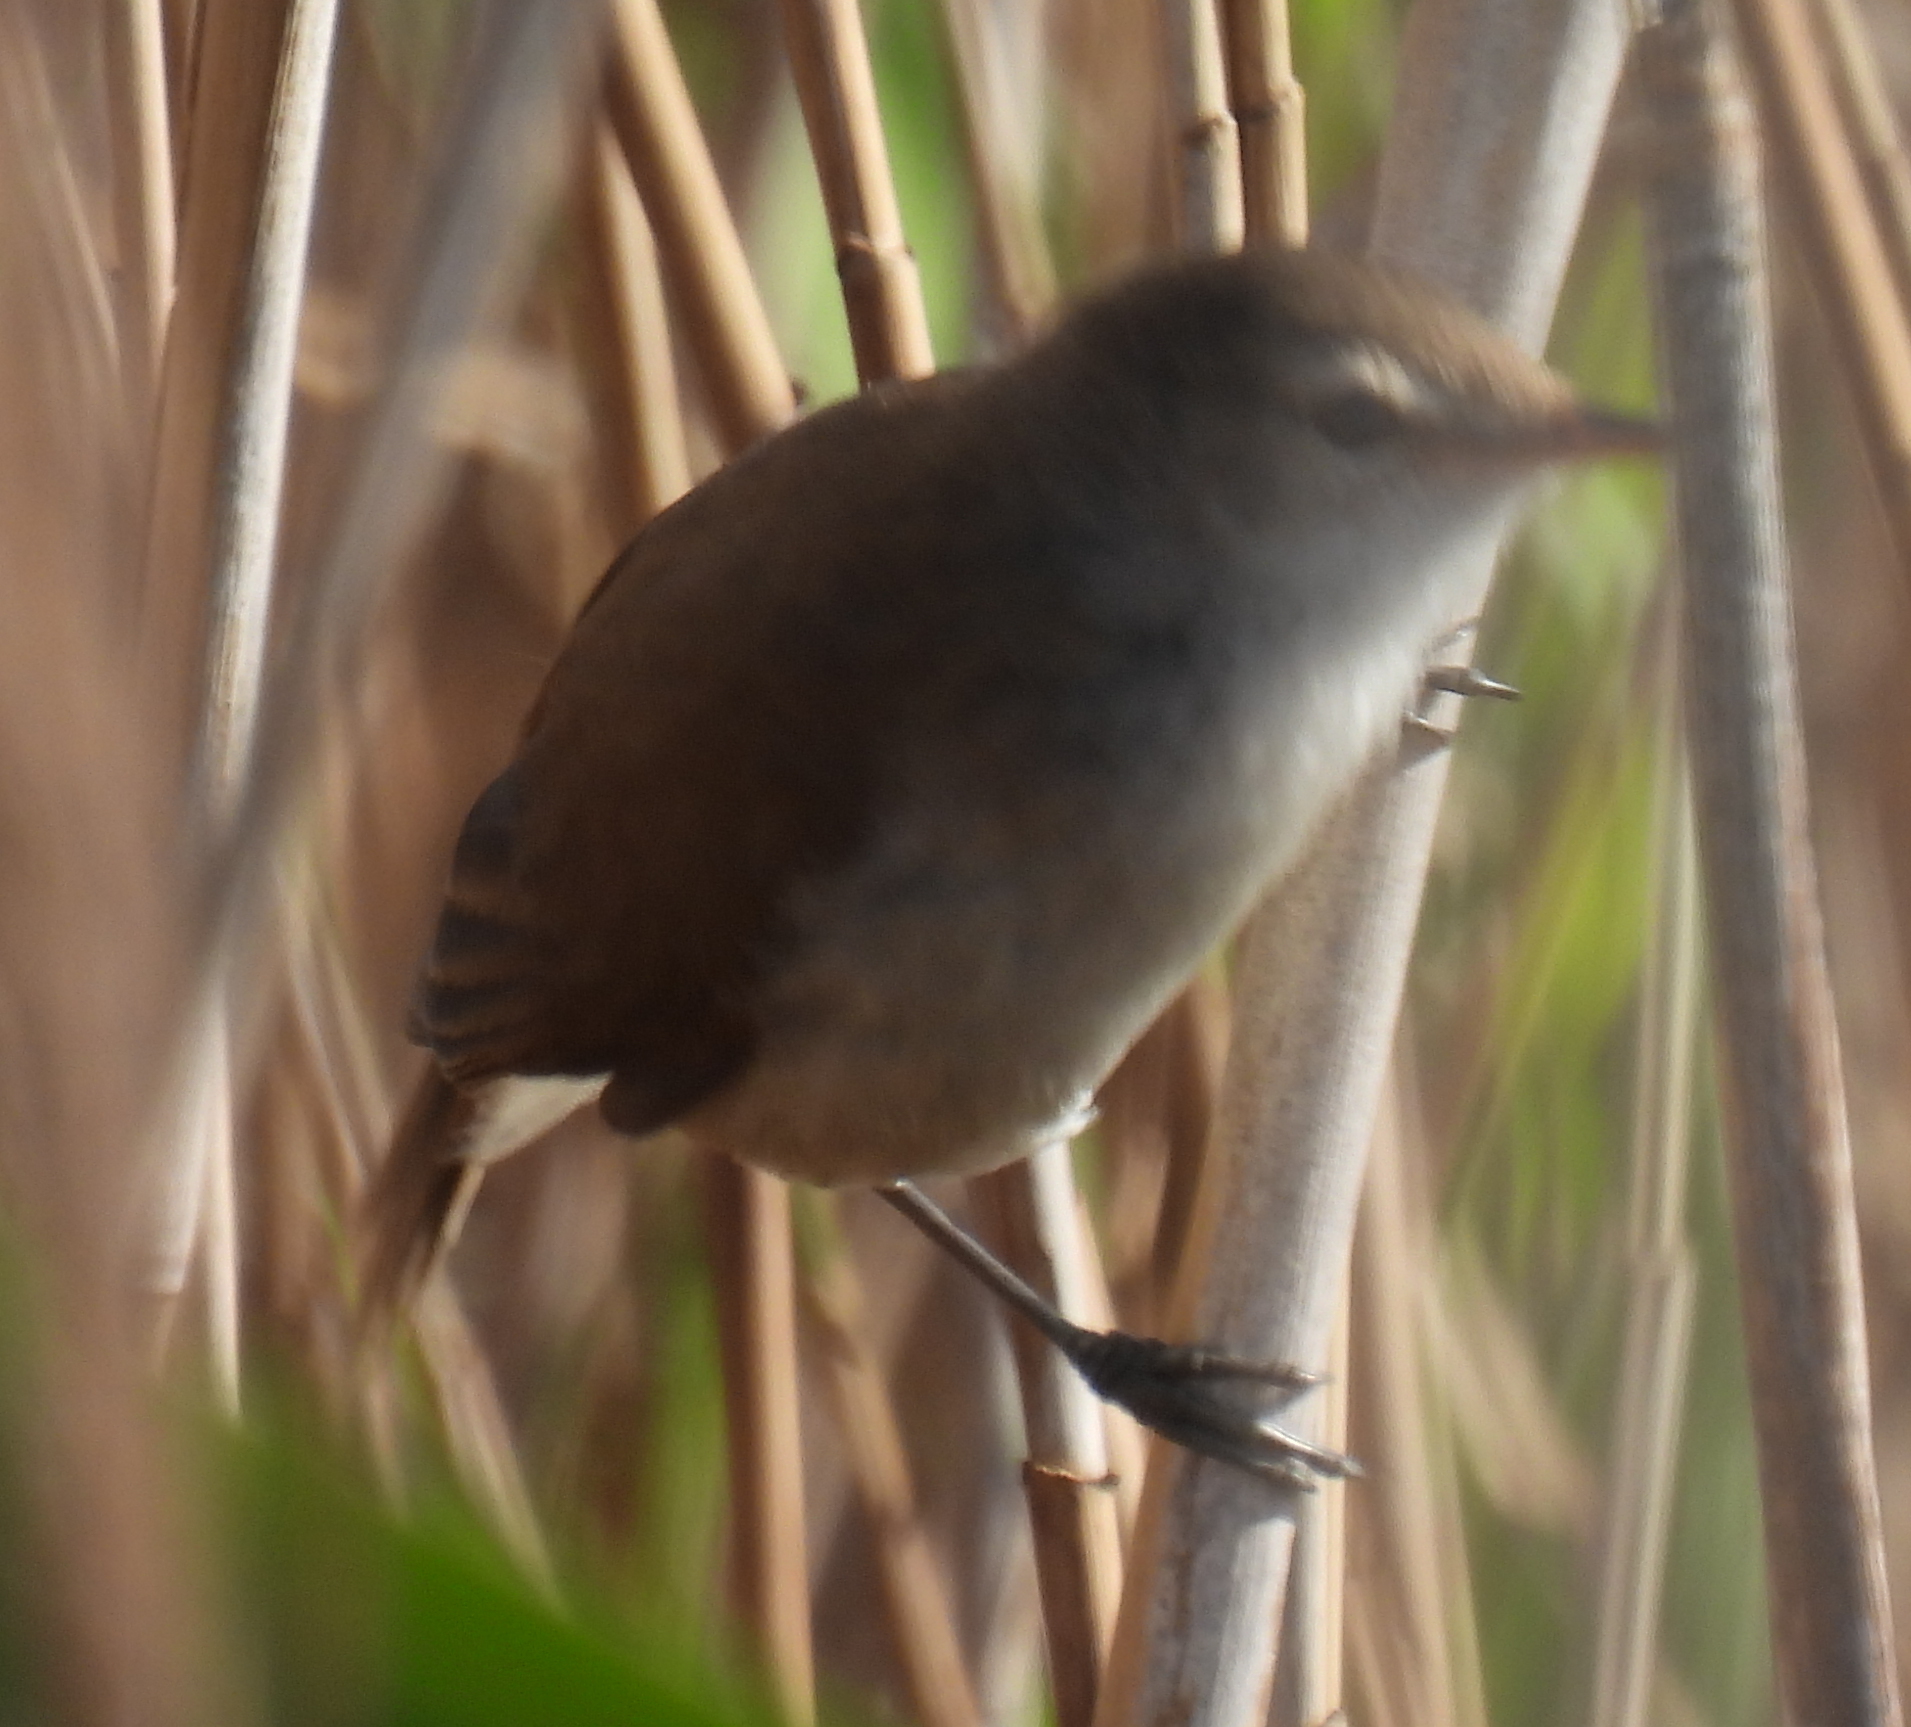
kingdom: Animalia
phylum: Chordata
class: Aves
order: Passeriformes
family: Acrocephalidae
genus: Acrocephalus
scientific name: Acrocephalus gracilirostris
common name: Lesser swamp warbler
